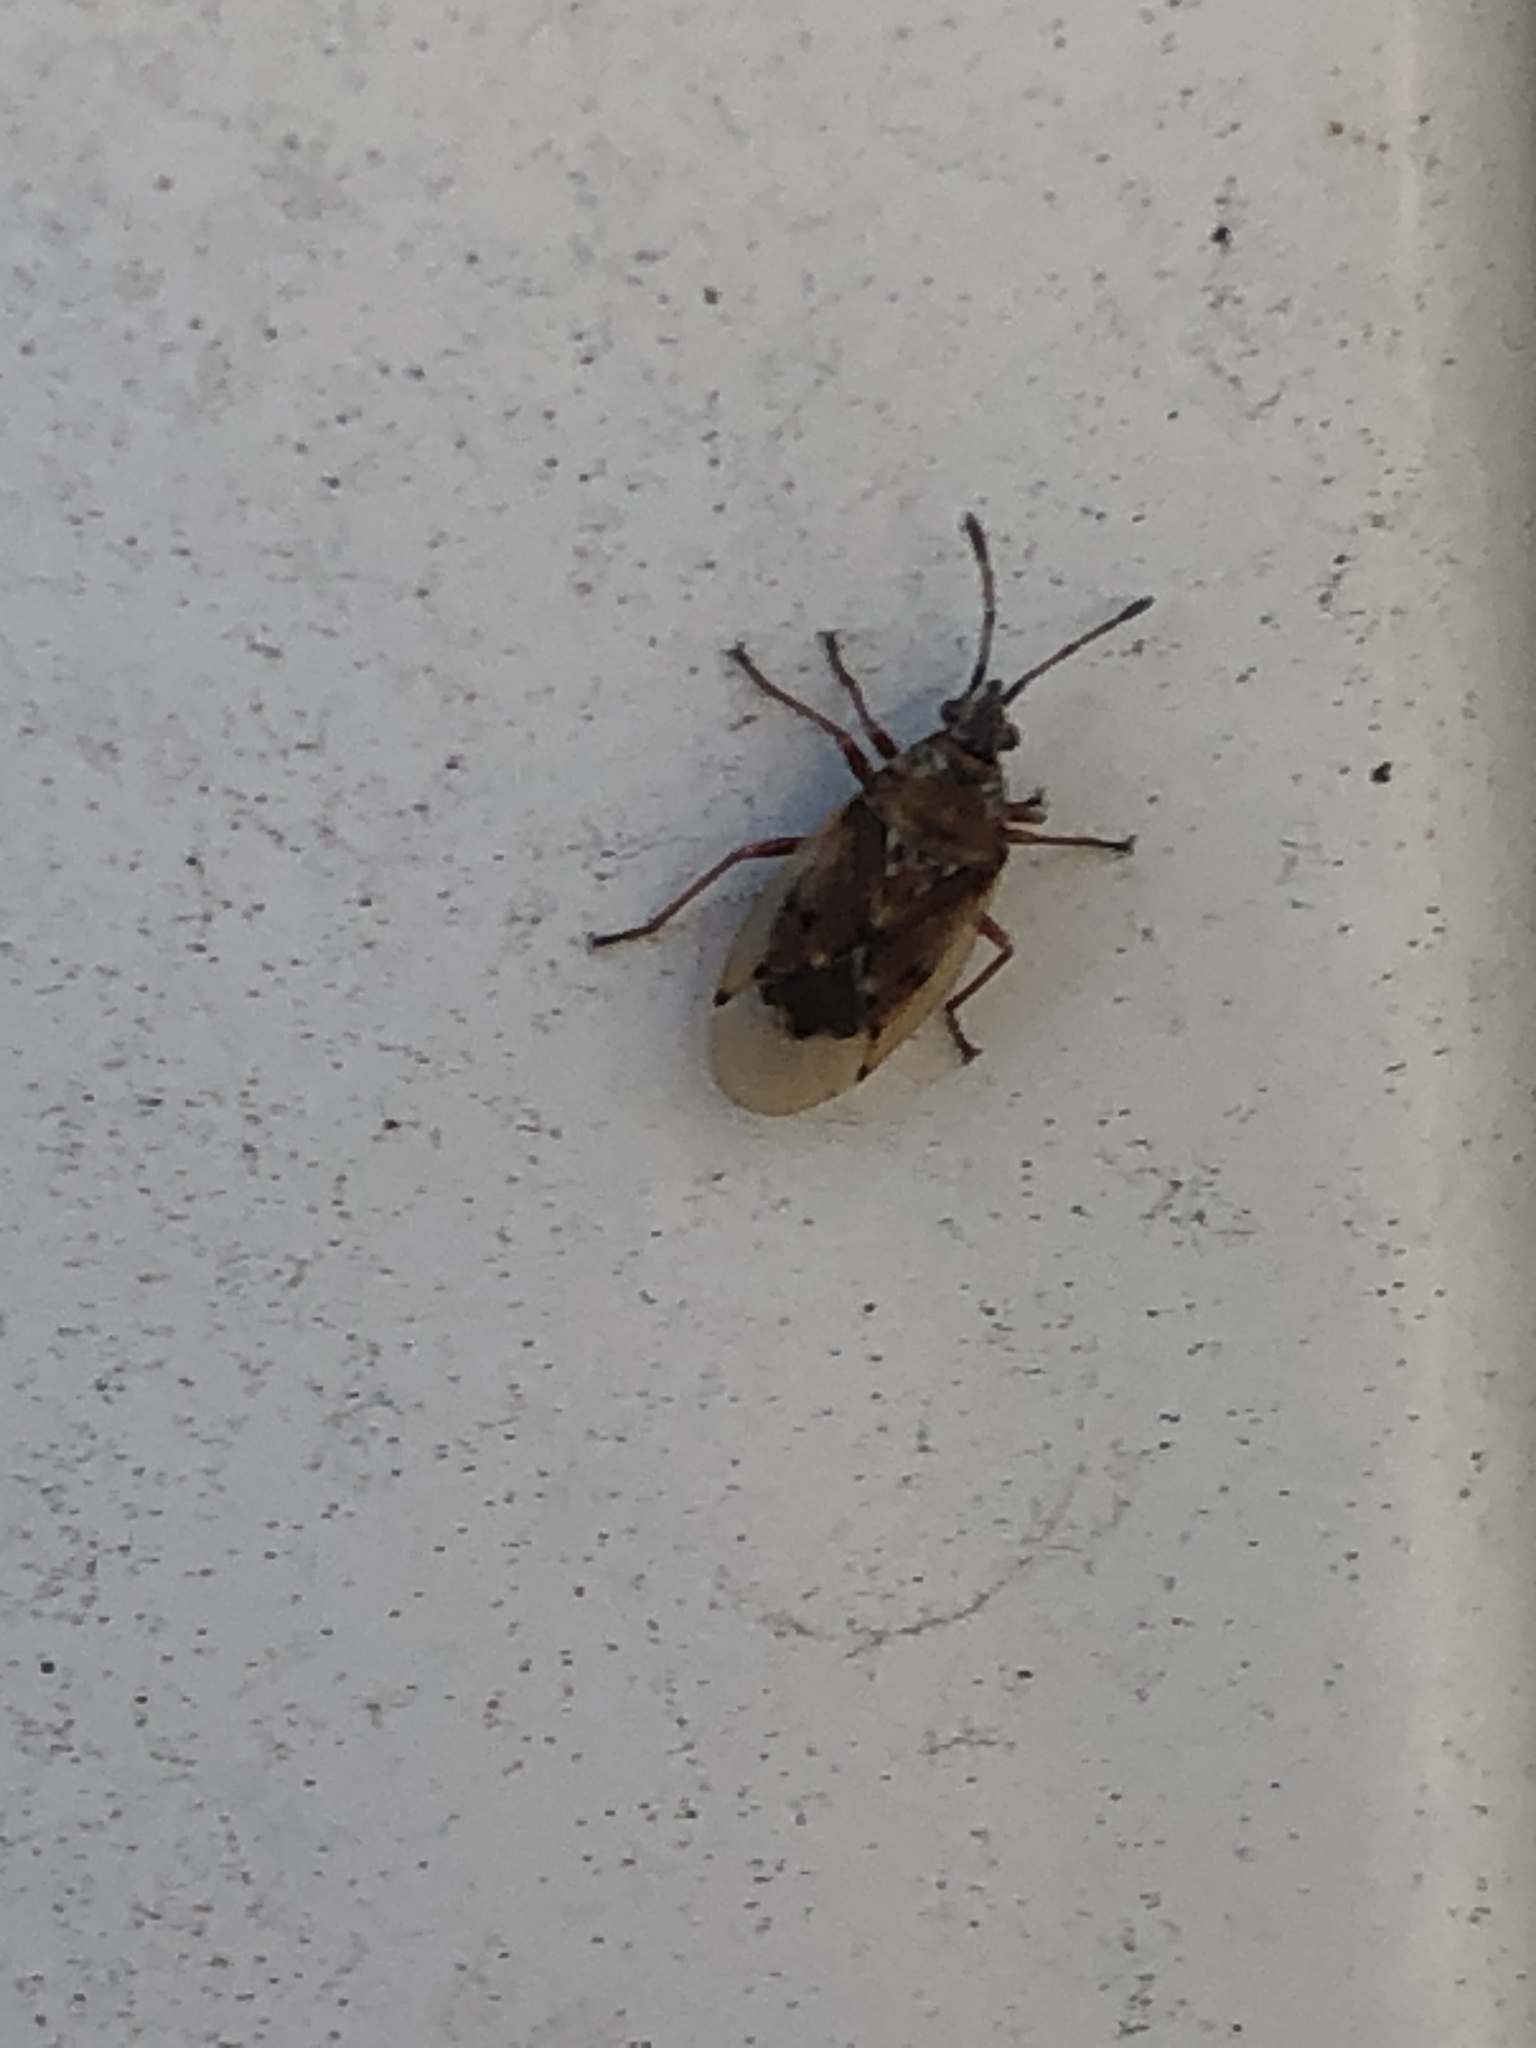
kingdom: Animalia
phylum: Arthropoda
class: Insecta
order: Hemiptera
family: Lygaeidae
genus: Kleidocerys
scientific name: Kleidocerys resedae
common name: Birch catkin bug
